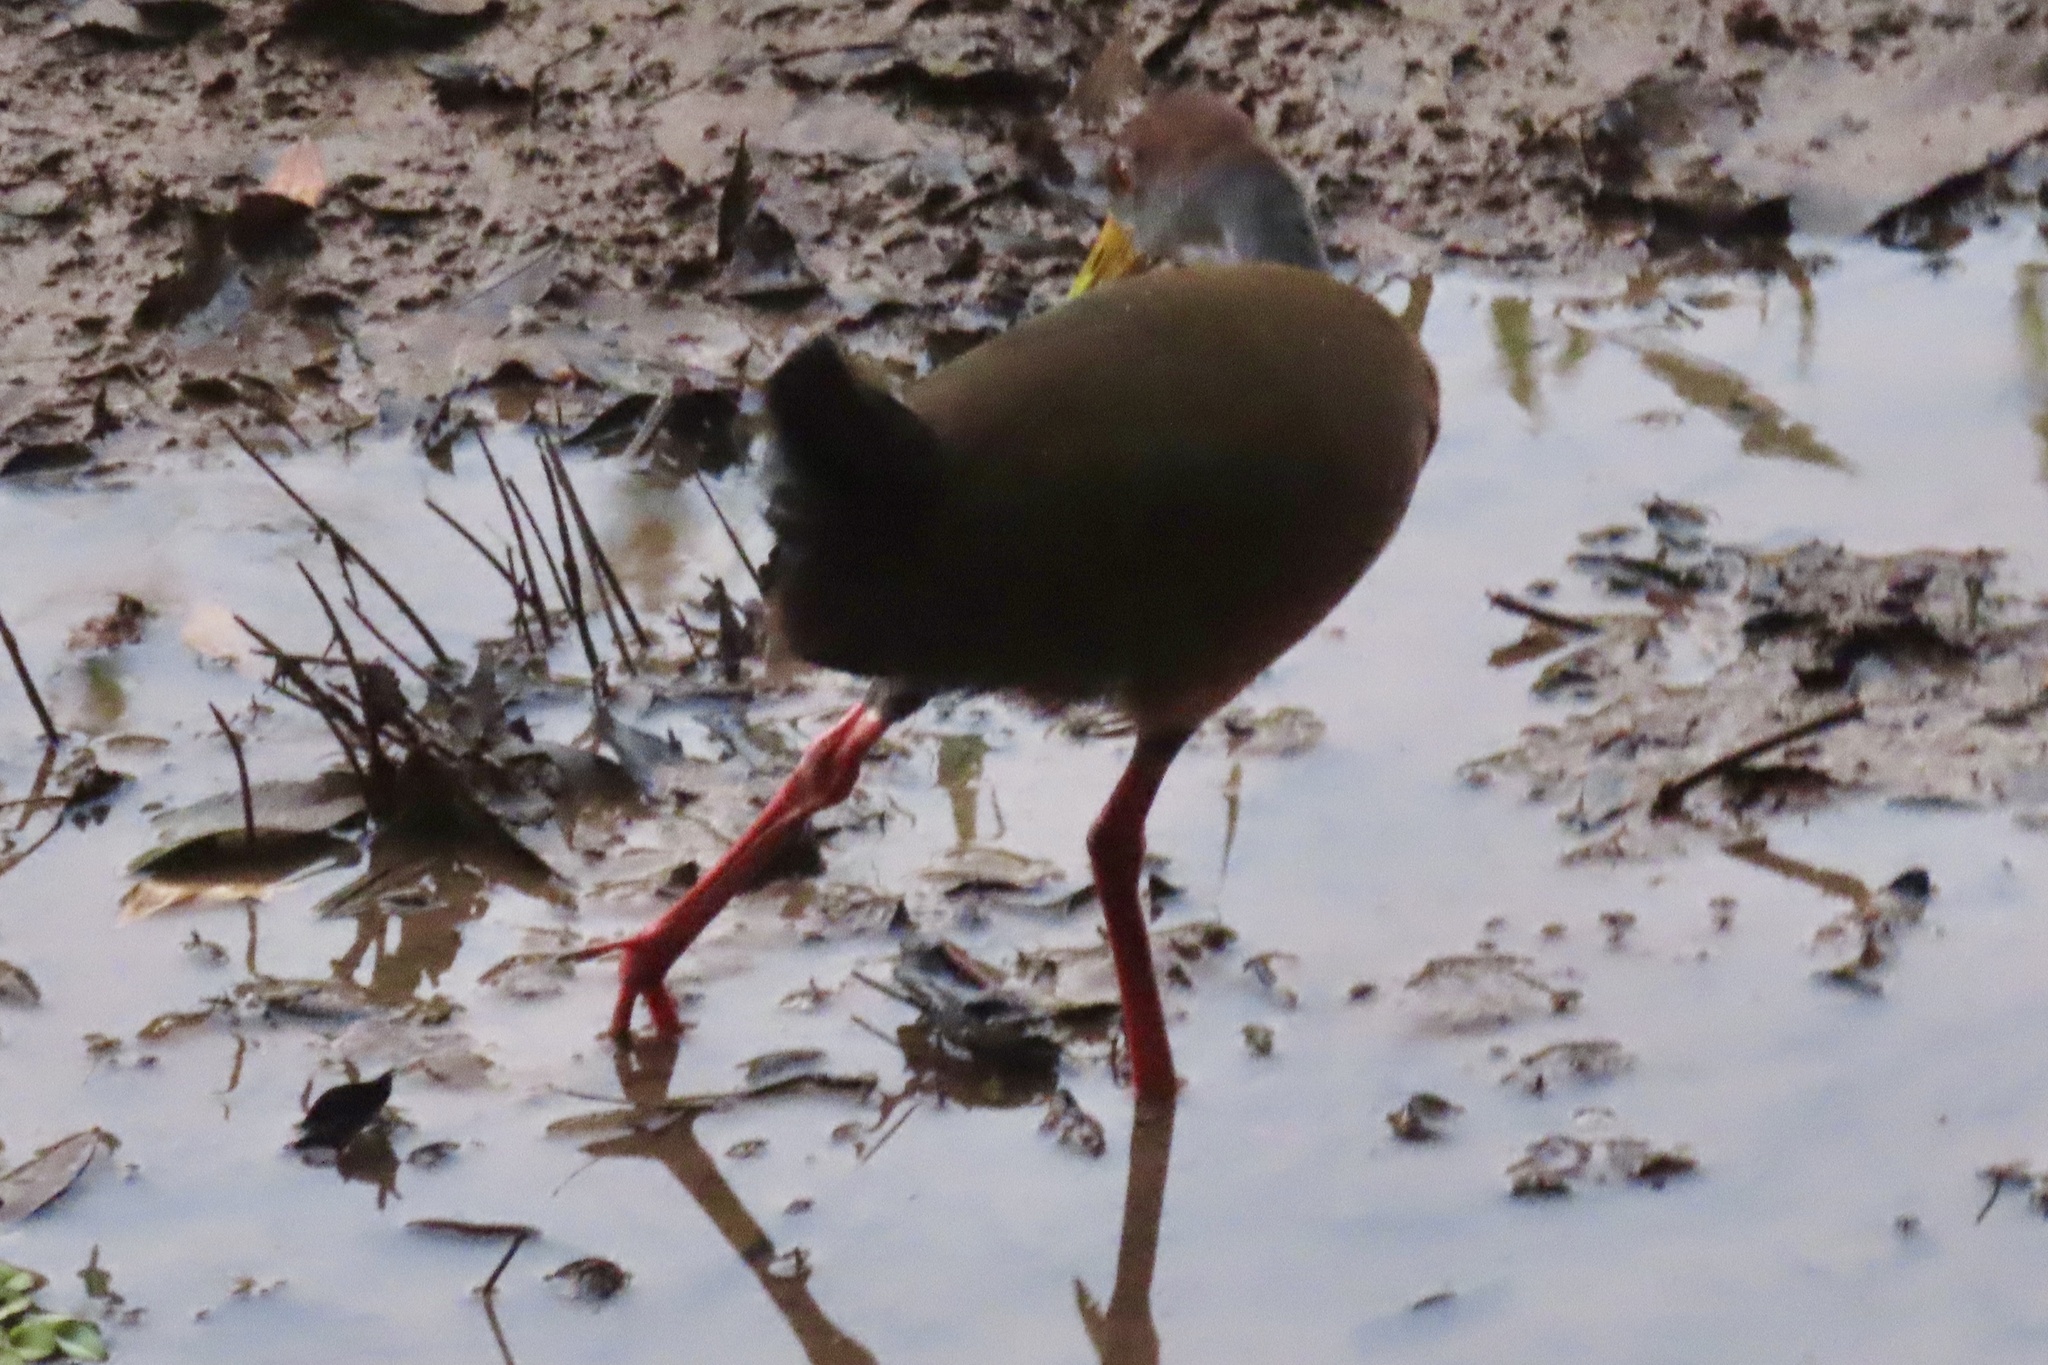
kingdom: Animalia
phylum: Chordata
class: Aves
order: Gruiformes
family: Rallidae
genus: Aramides
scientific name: Aramides albiventris
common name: Russet-naped wood-rail
